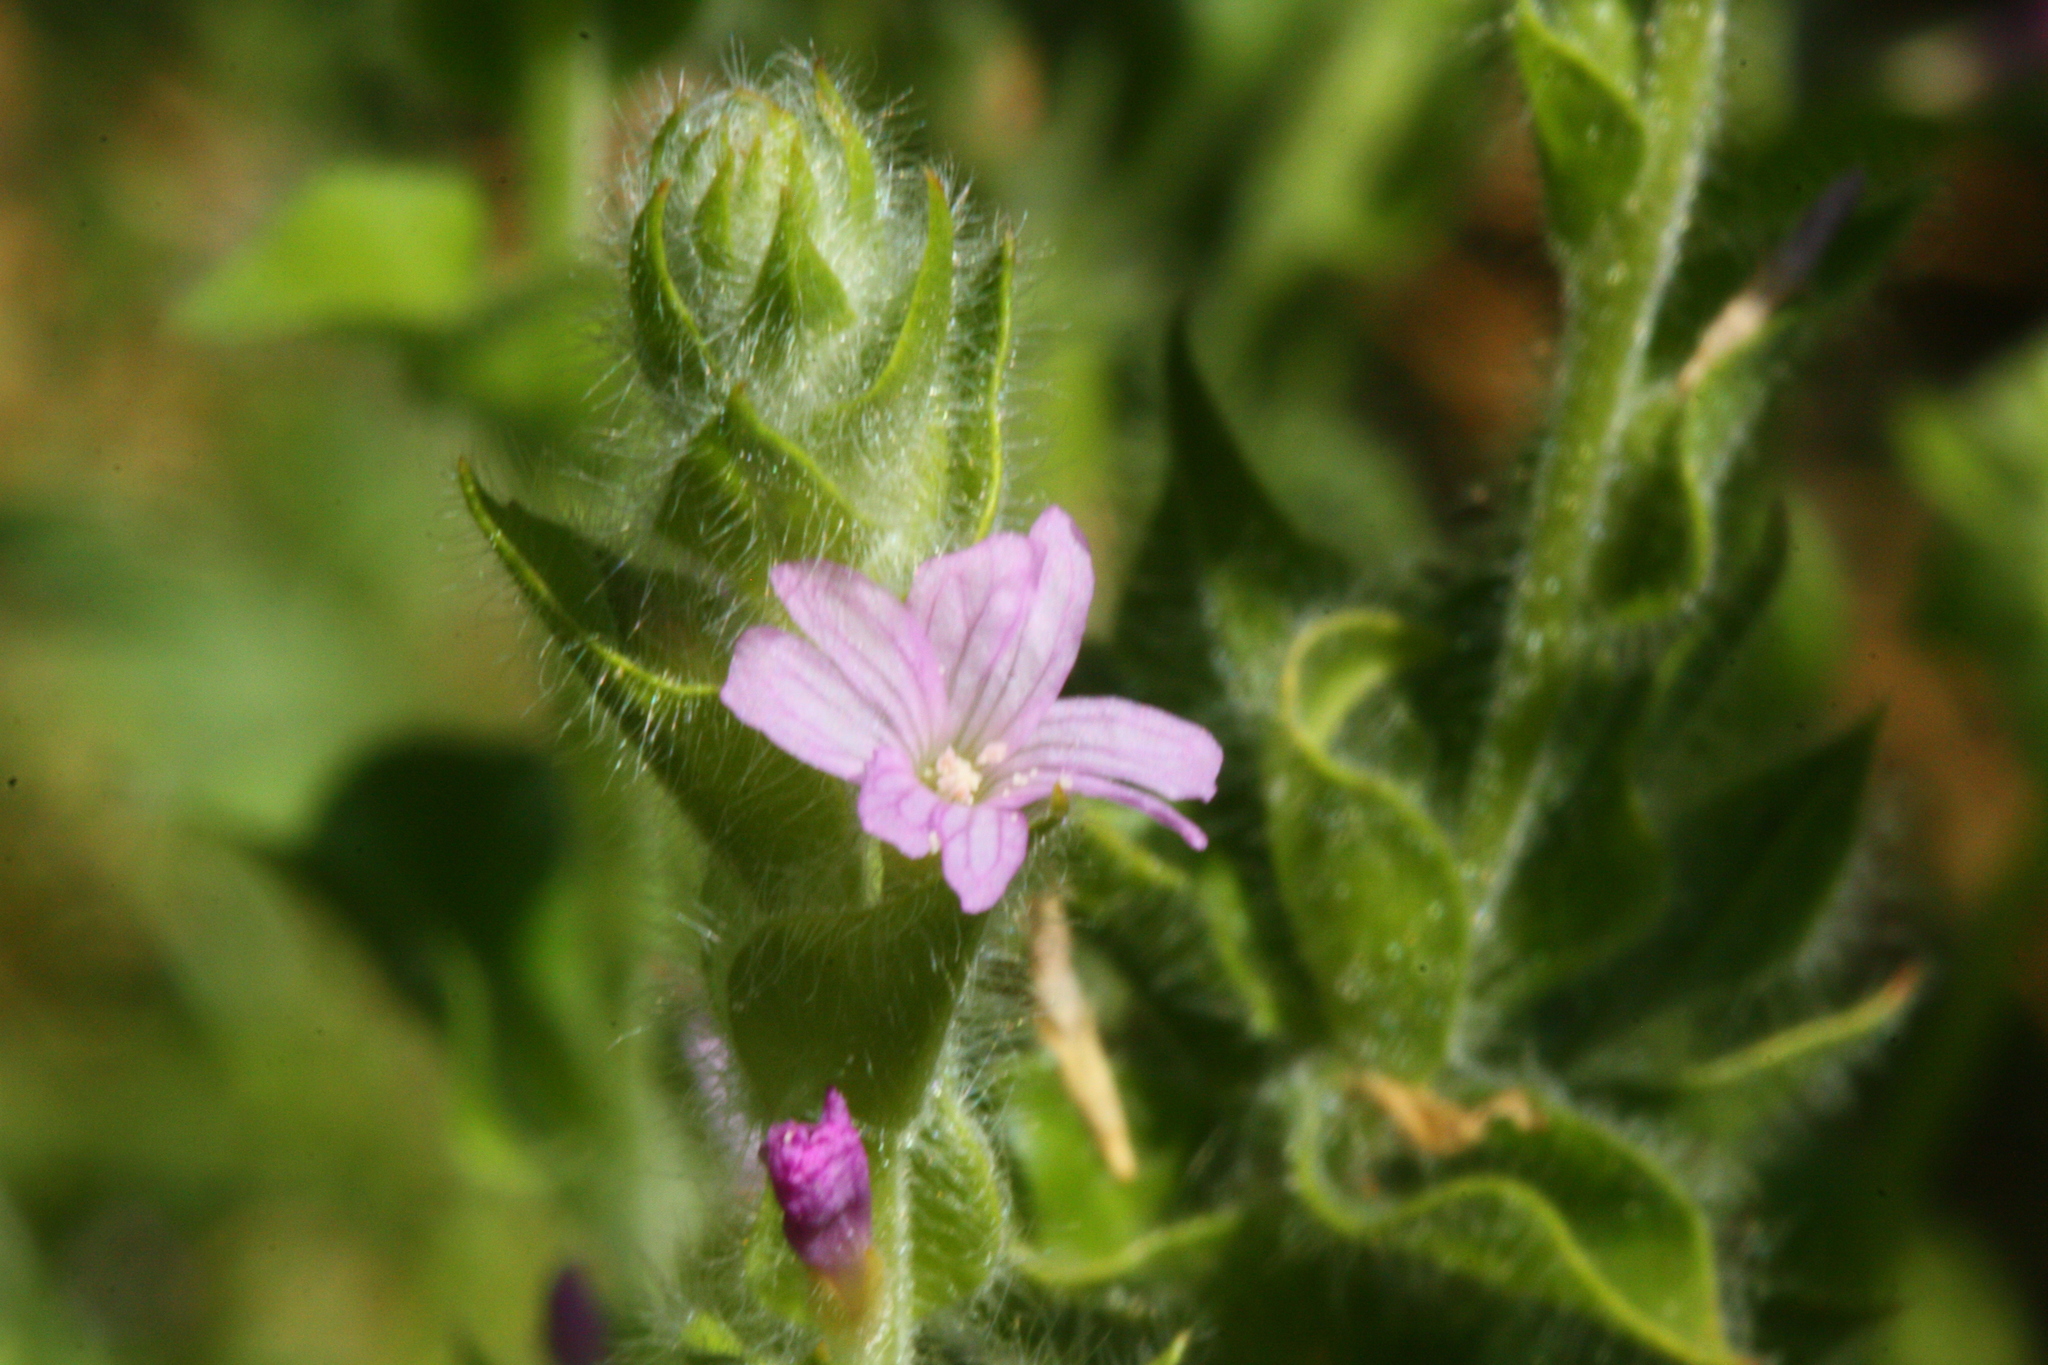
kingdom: Plantae
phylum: Tracheophyta
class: Magnoliopsida
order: Myrtales
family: Onagraceae
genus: Epilobium
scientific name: Epilobium densiflorum
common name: Dense spike-primrose
